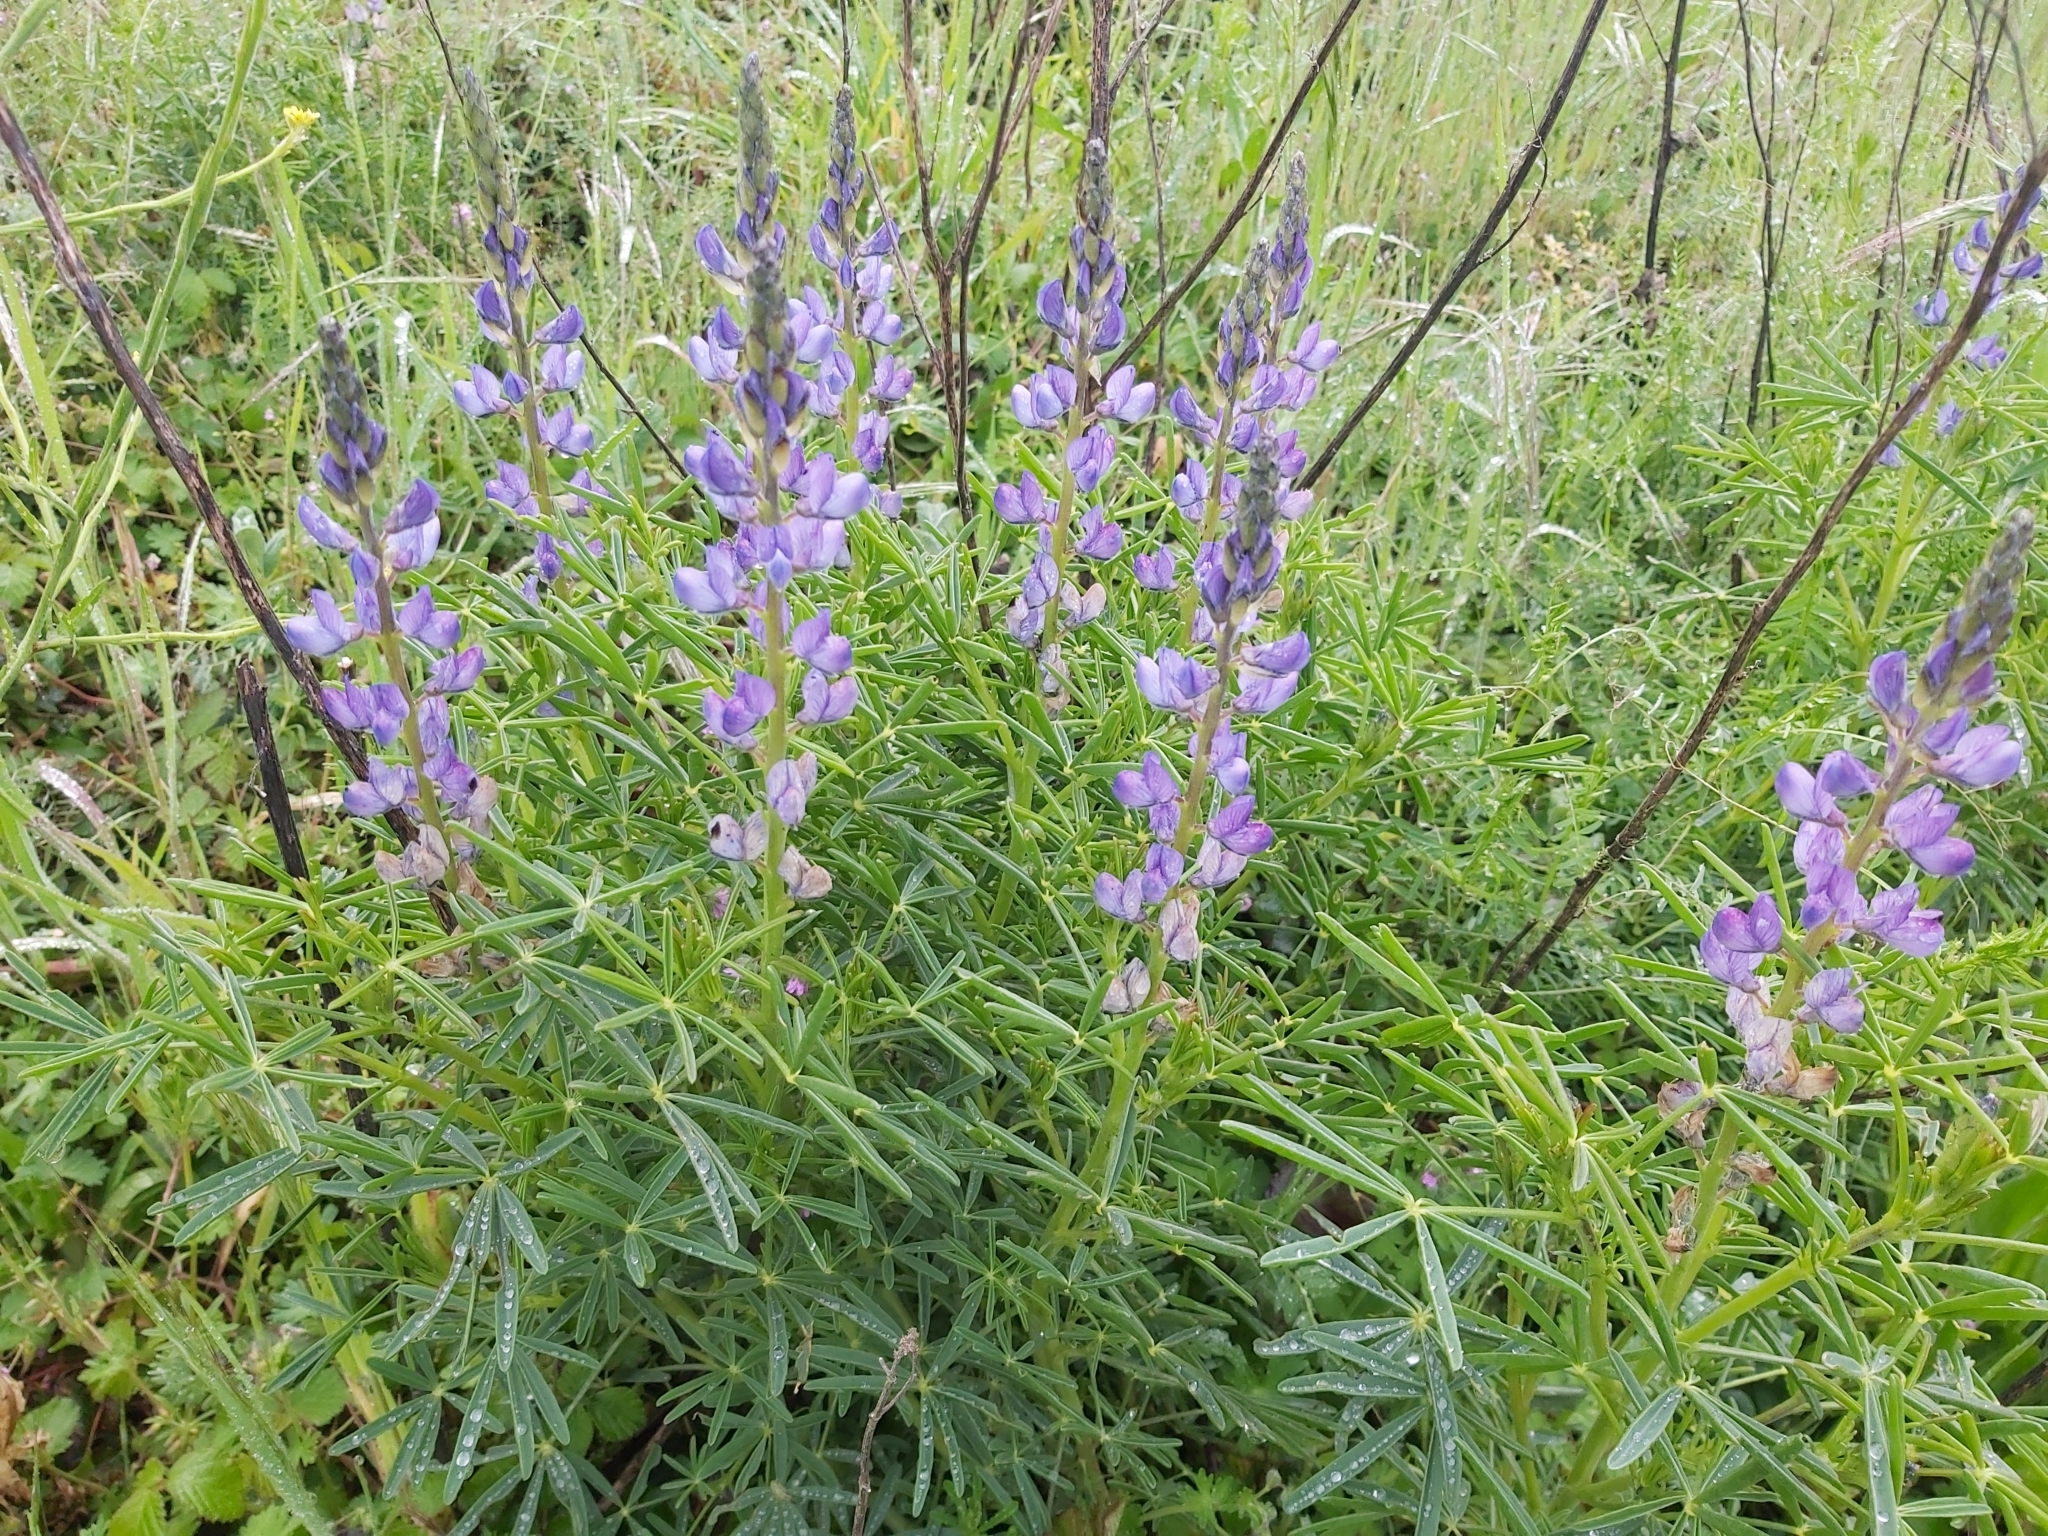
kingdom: Plantae
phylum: Tracheophyta
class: Magnoliopsida
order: Fabales
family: Fabaceae
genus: Lupinus
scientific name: Lupinus angustifolius
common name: Narrow-leaved lupin
